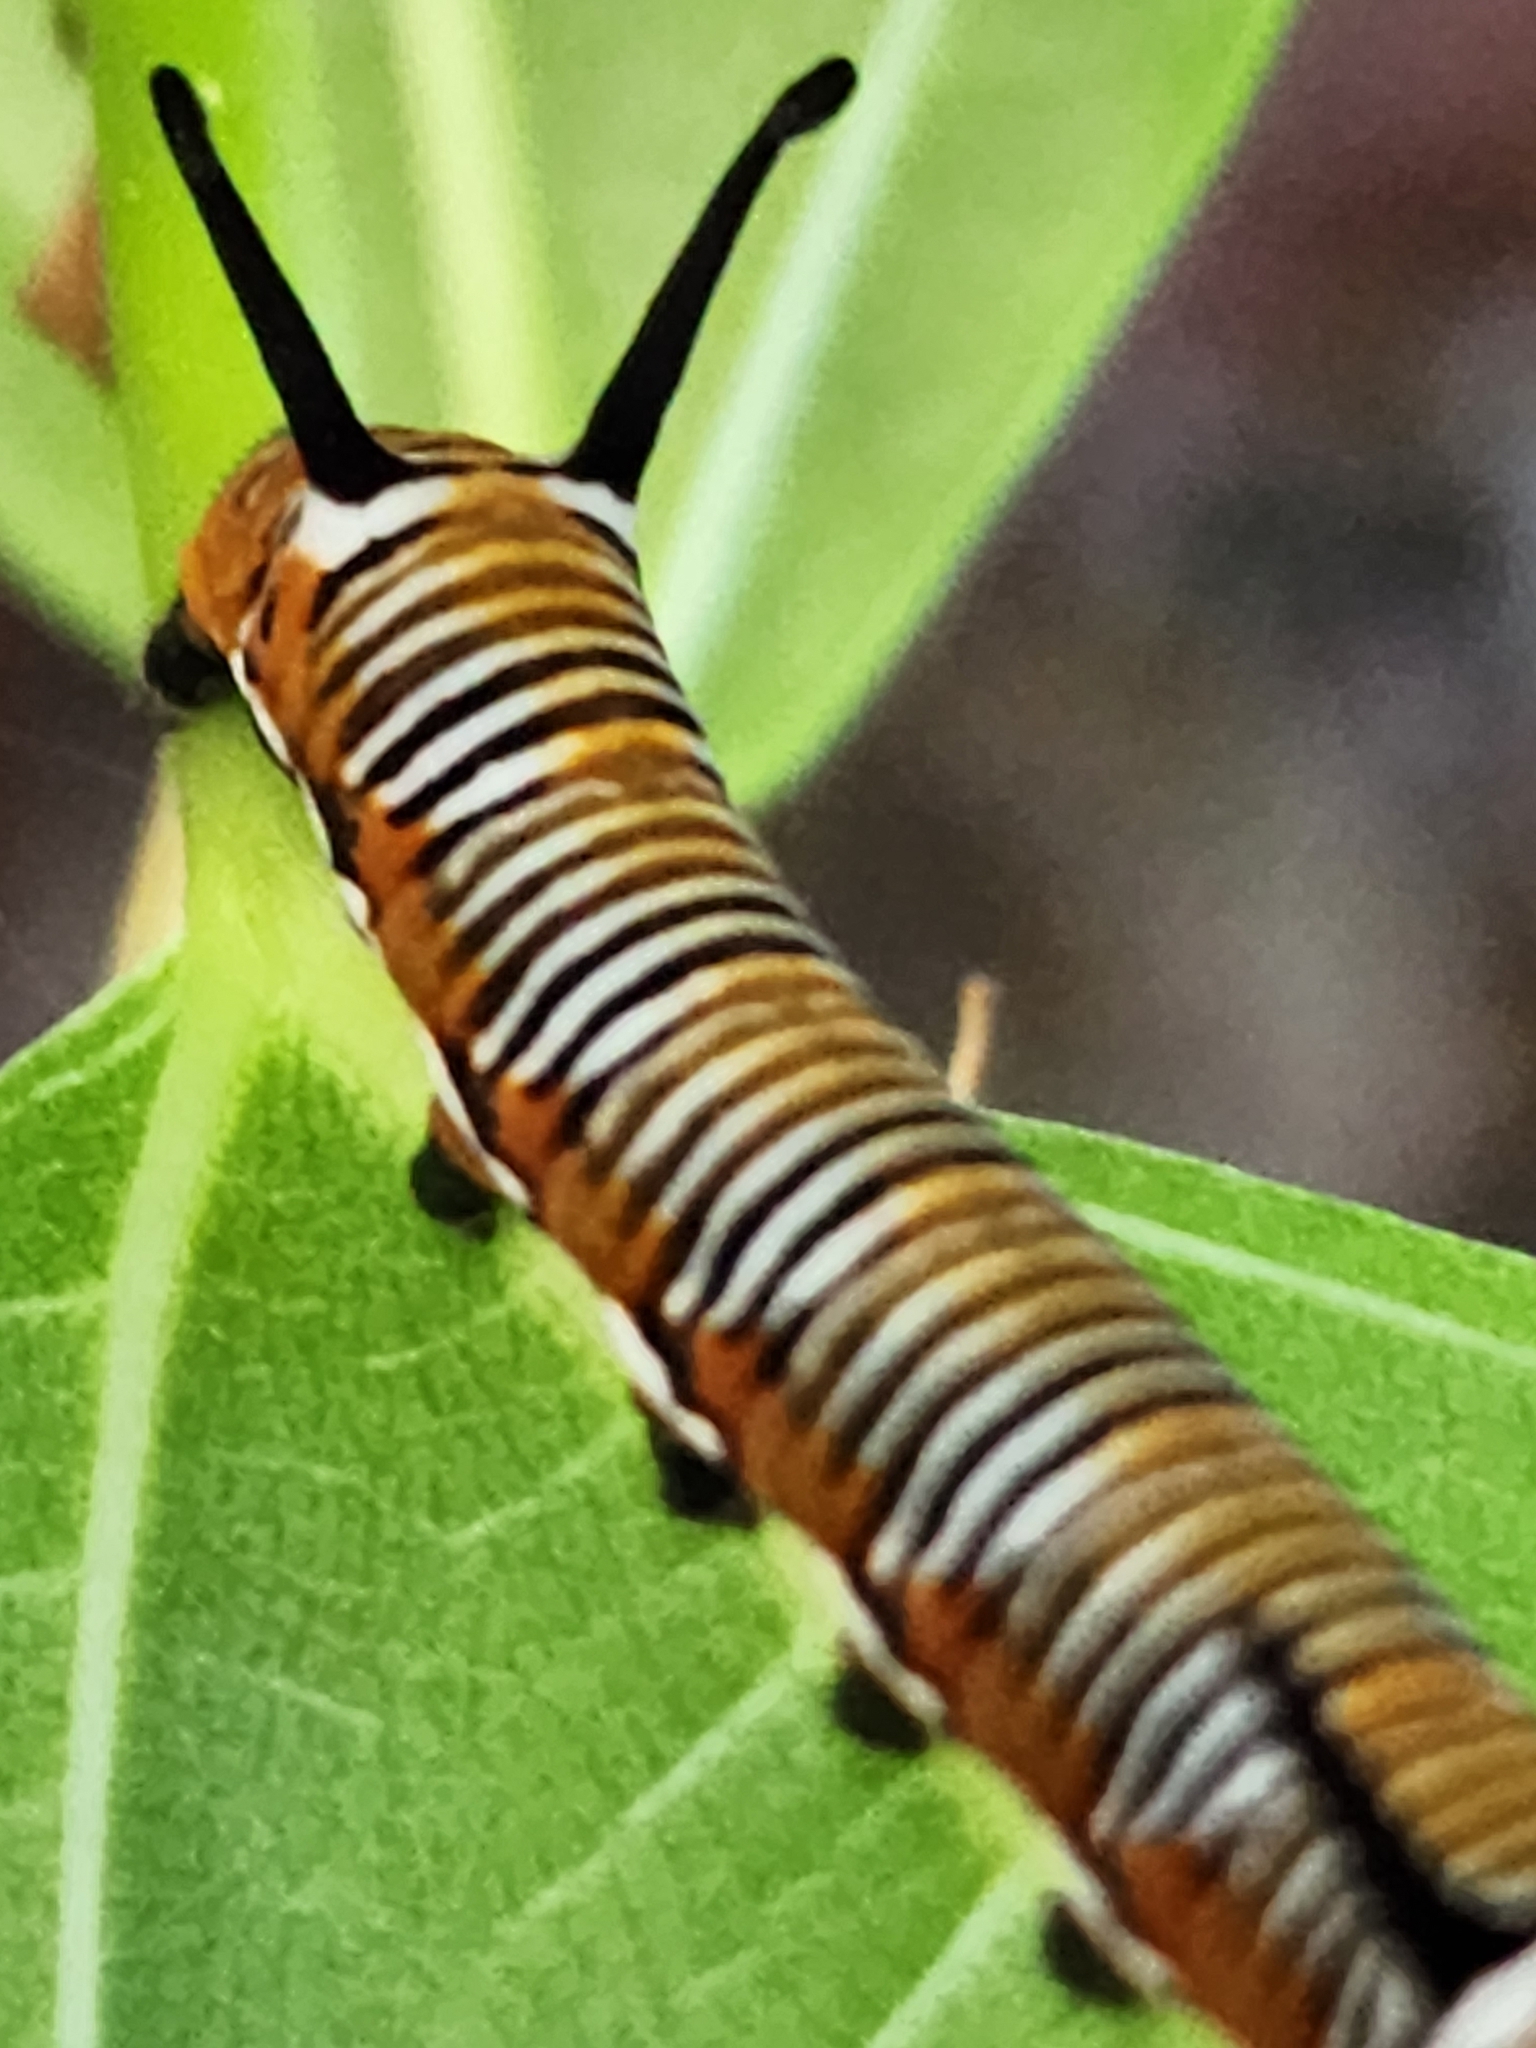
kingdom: Animalia
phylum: Arthropoda
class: Insecta
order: Lepidoptera
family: Nymphalidae
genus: Euploea
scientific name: Euploea core
